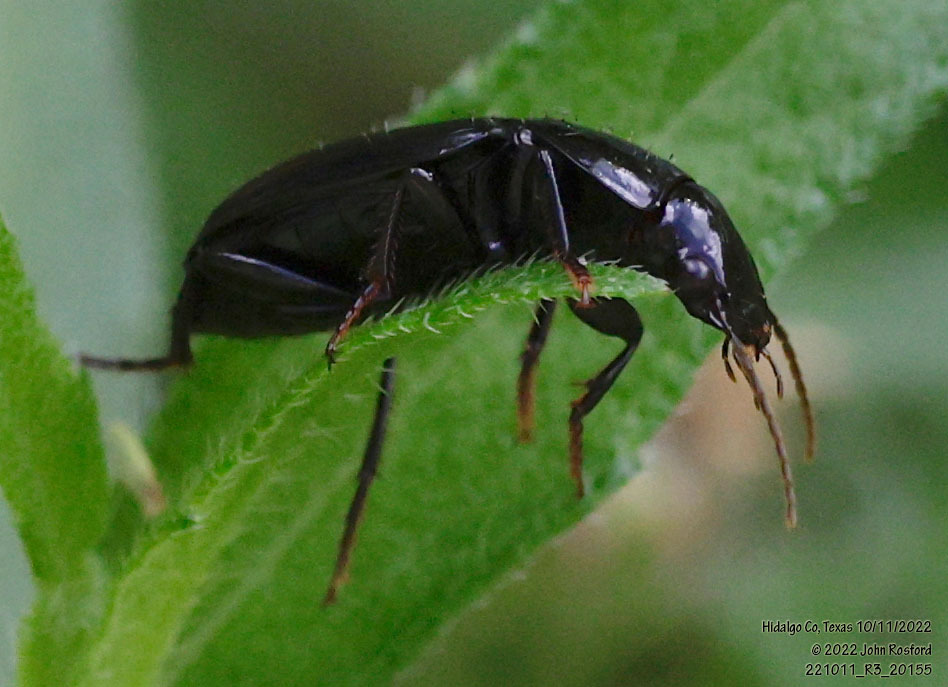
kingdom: Animalia
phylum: Arthropoda
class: Insecta
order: Coleoptera
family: Carabidae
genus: Aztecarpalus
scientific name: Aztecarpalus schaefferi
